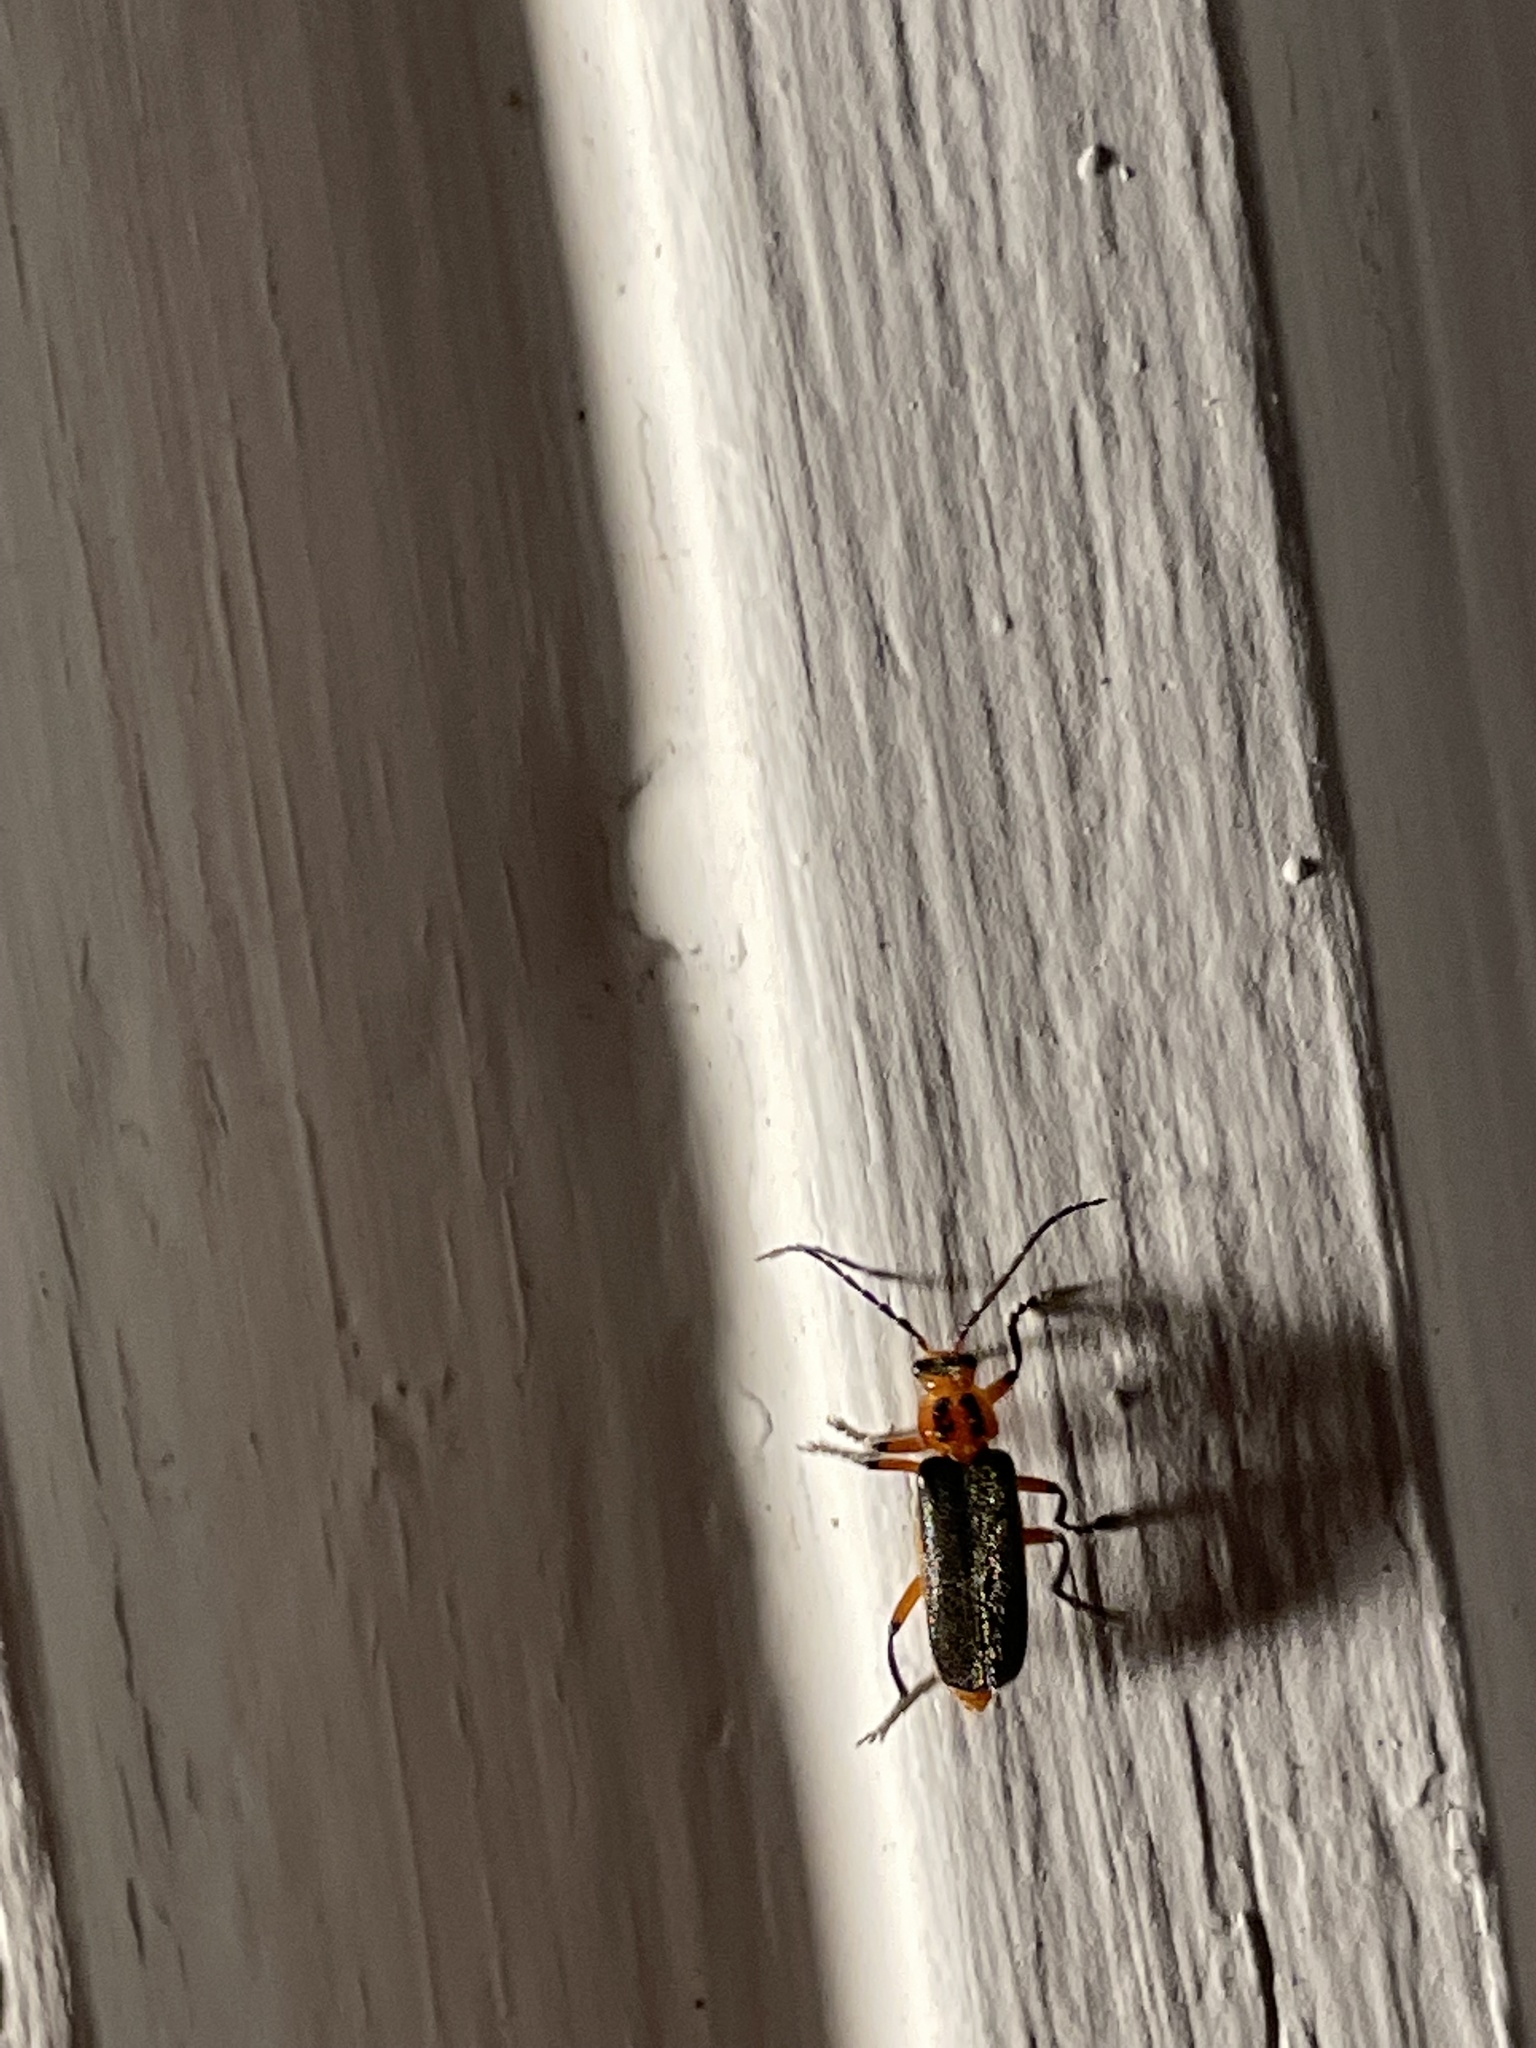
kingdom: Animalia
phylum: Arthropoda
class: Insecta
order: Coleoptera
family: Cantharidae
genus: Atalantycha
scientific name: Atalantycha bilineata
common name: Two-lined leatherwing
